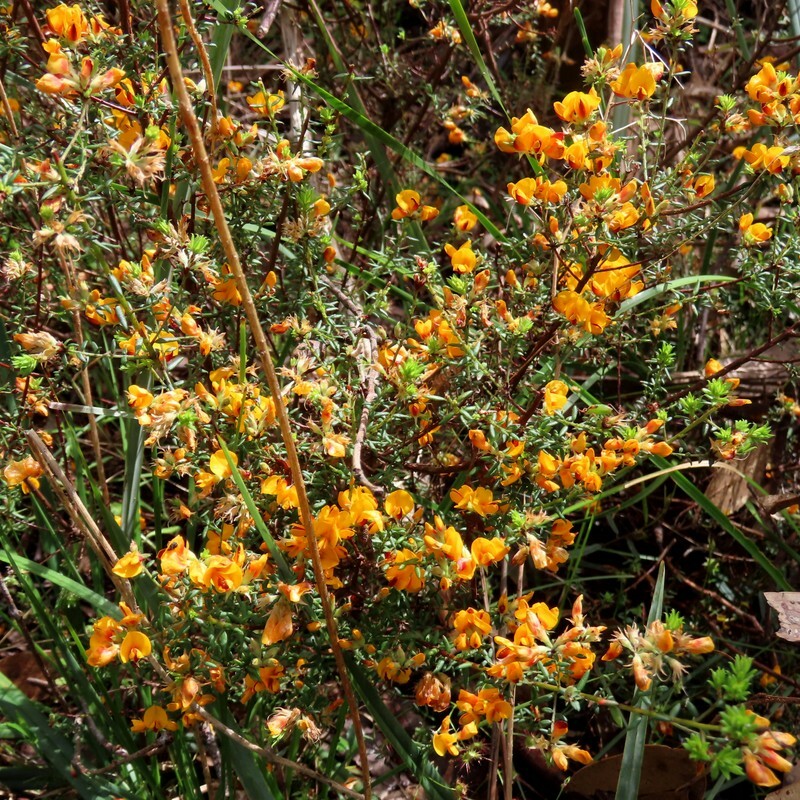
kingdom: Plantae
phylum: Tracheophyta
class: Magnoliopsida
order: Fabales
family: Fabaceae
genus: Pultenaea
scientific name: Pultenaea gunnii
